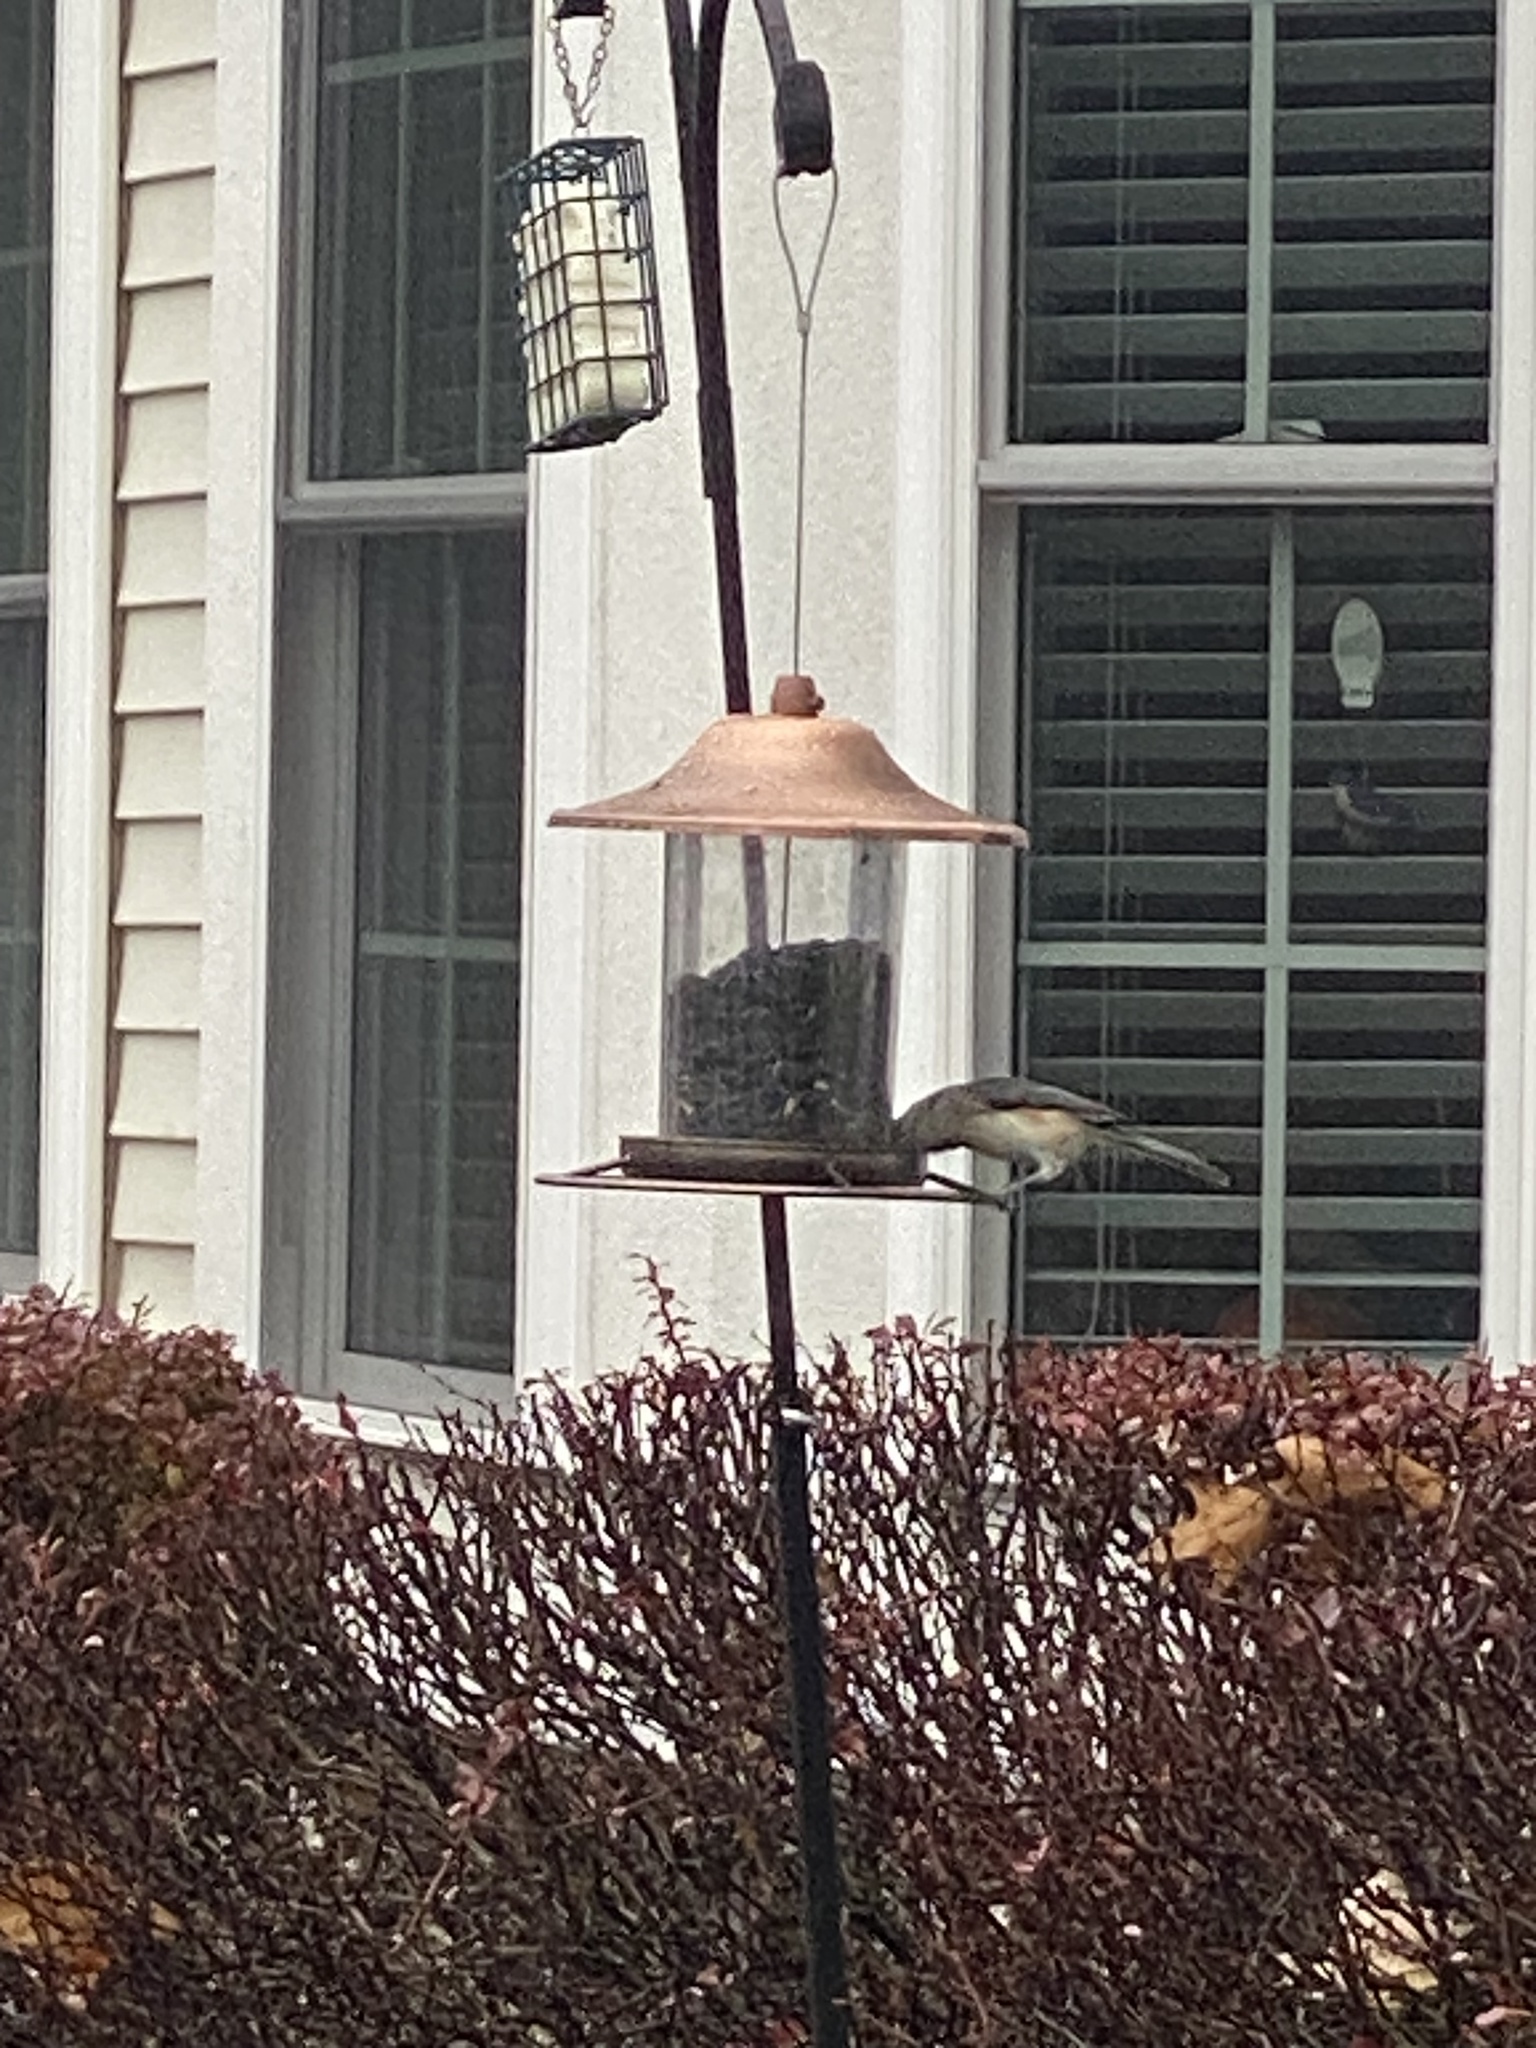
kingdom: Animalia
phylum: Chordata
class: Aves
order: Passeriformes
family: Paridae
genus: Baeolophus
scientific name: Baeolophus bicolor
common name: Tufted titmouse
